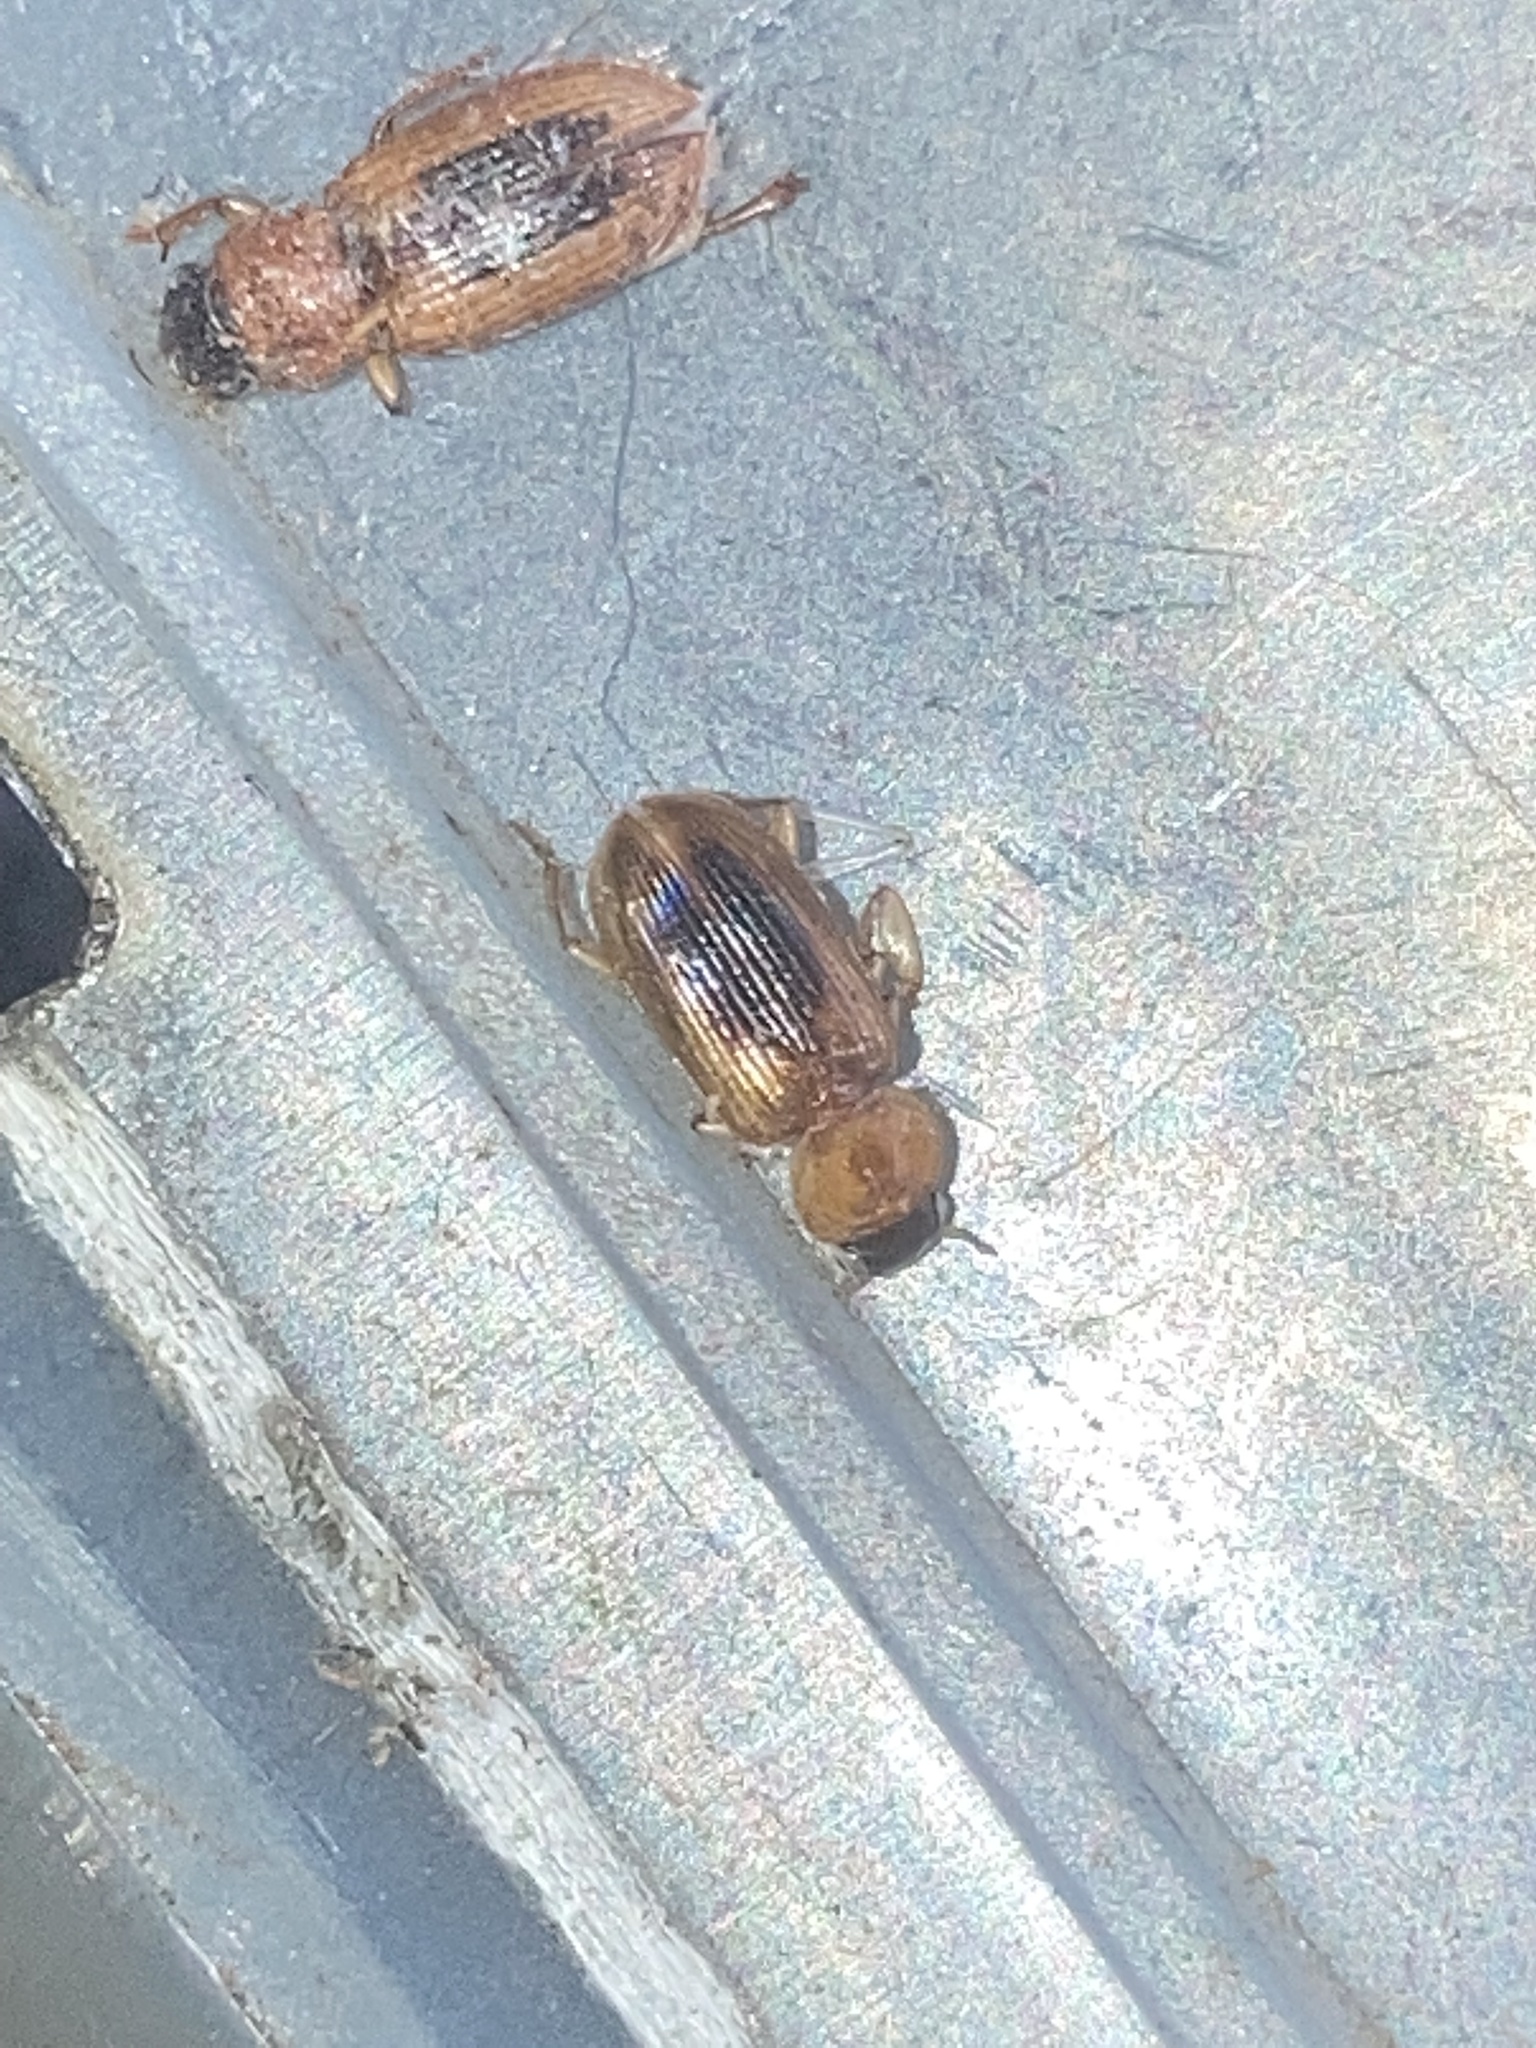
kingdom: Animalia
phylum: Arthropoda
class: Insecta
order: Coleoptera
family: Carabidae
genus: Stenolophus
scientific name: Stenolophus dissimilis
